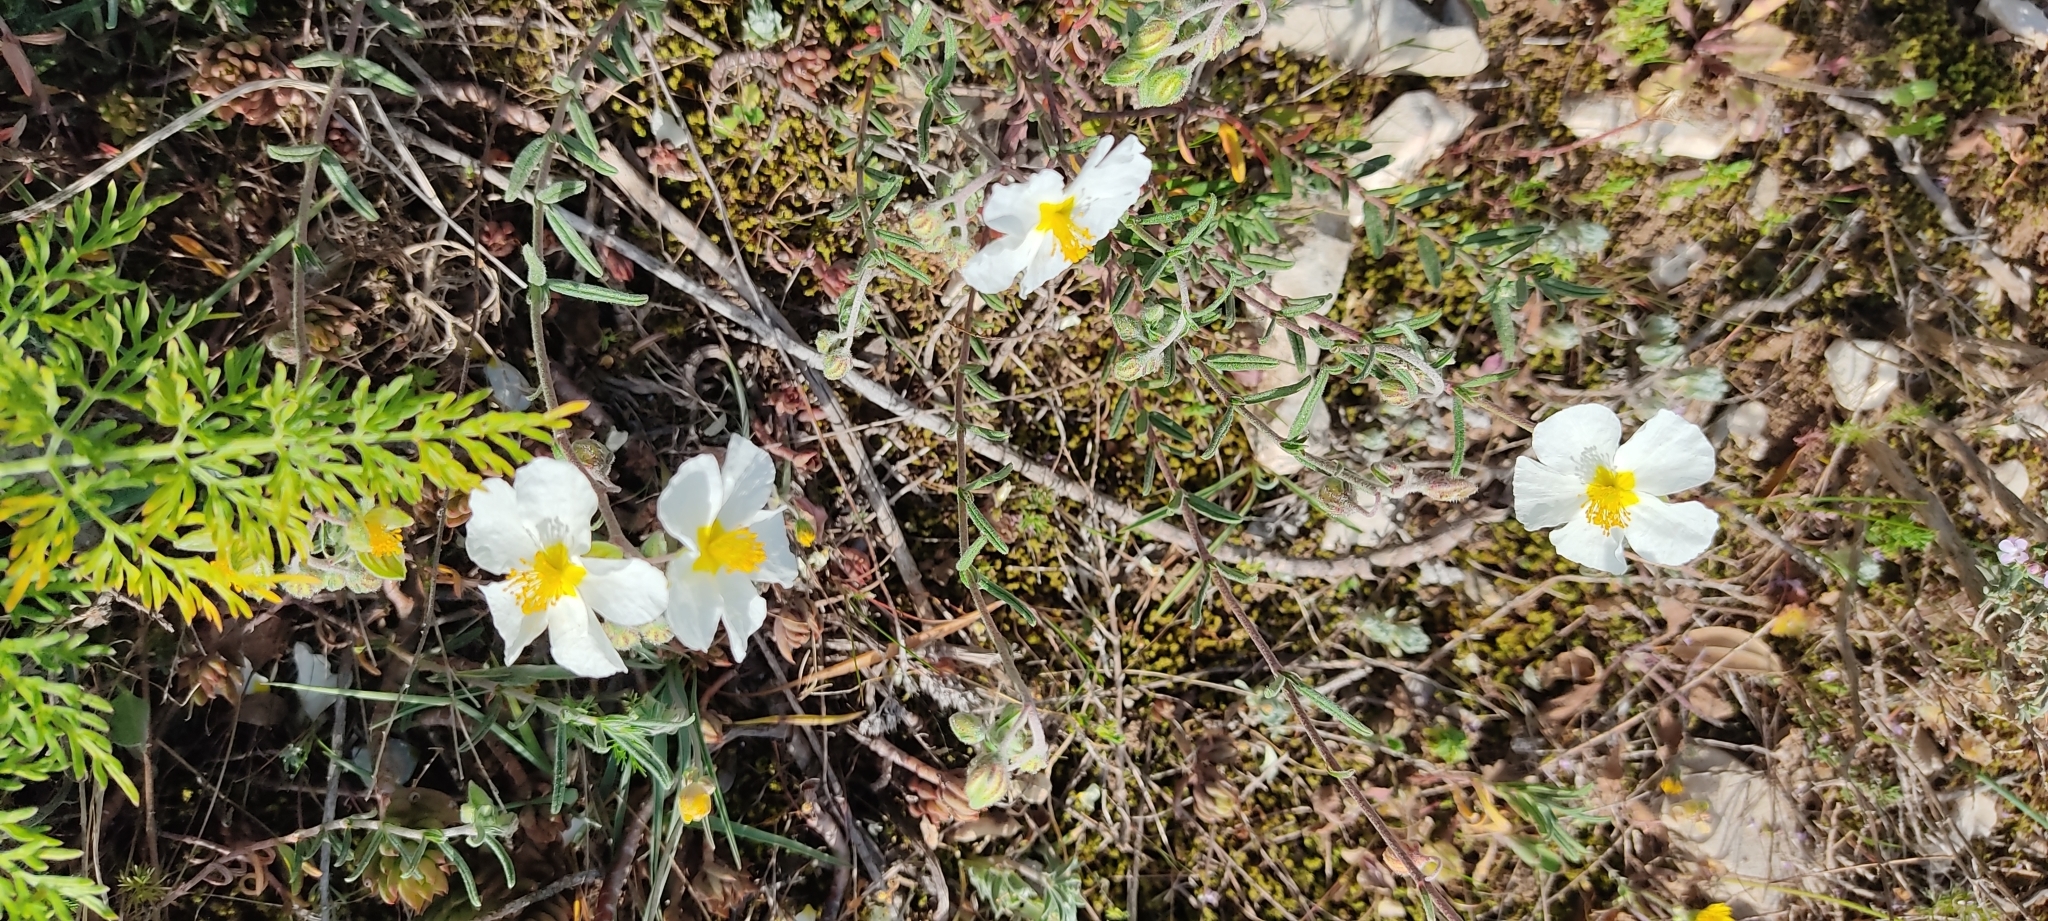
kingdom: Plantae
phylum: Tracheophyta
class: Magnoliopsida
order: Malvales
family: Cistaceae
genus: Helianthemum
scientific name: Helianthemum apenninum
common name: White rock-rose
